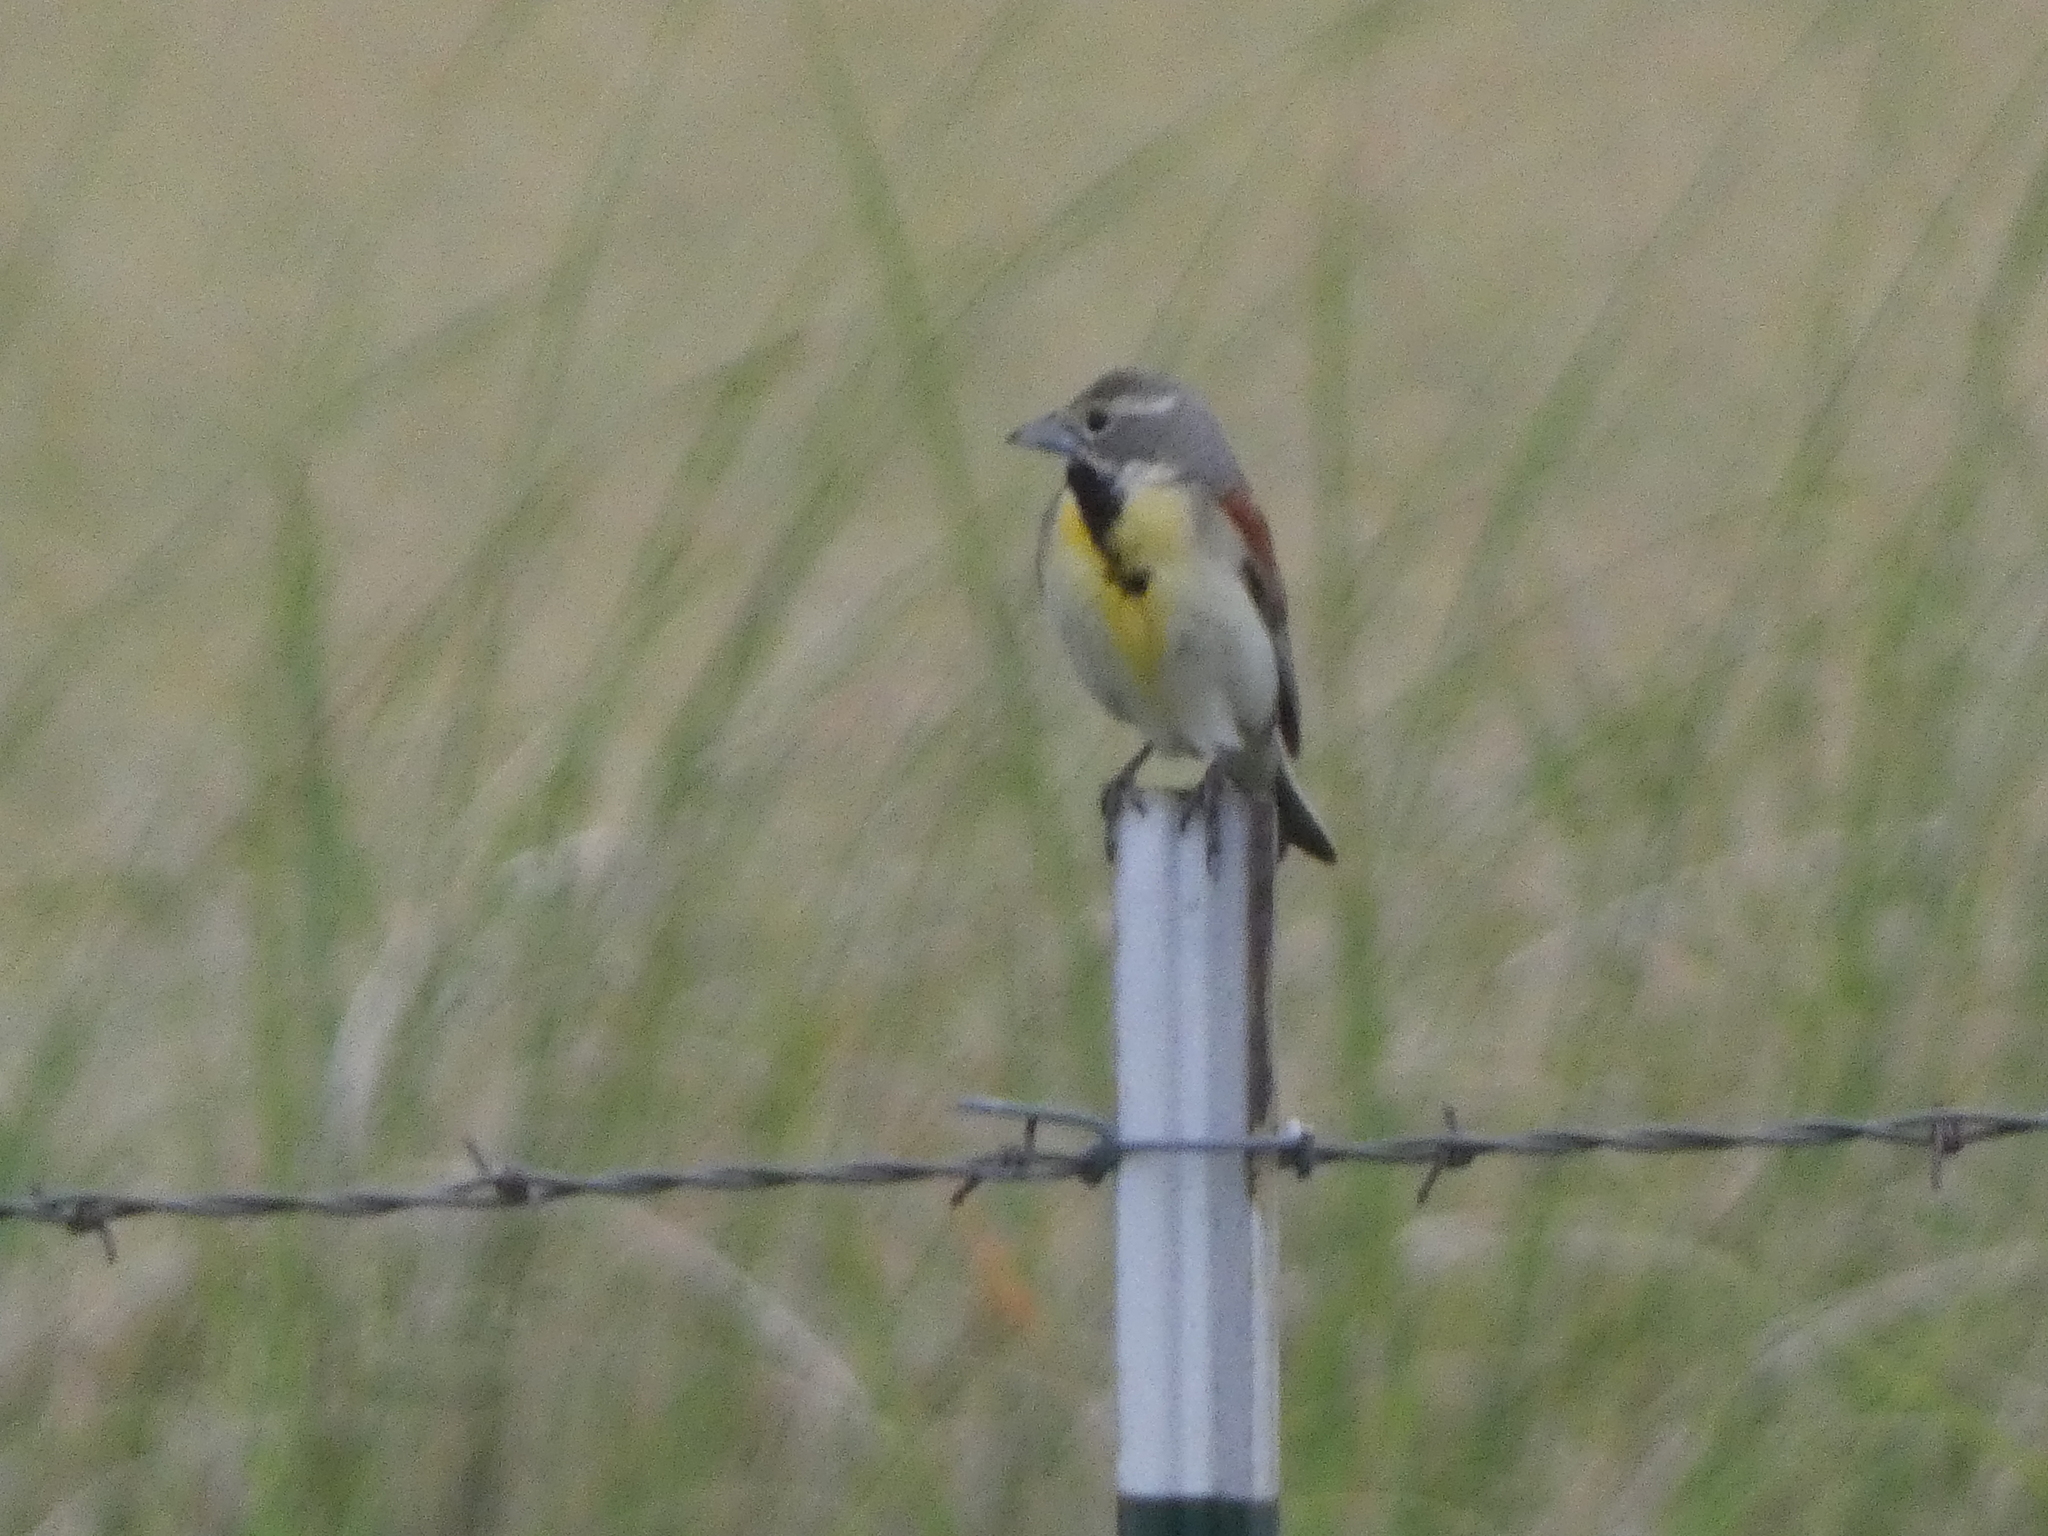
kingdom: Animalia
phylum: Chordata
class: Aves
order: Passeriformes
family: Cardinalidae
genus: Spiza
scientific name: Spiza americana
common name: Dickcissel
